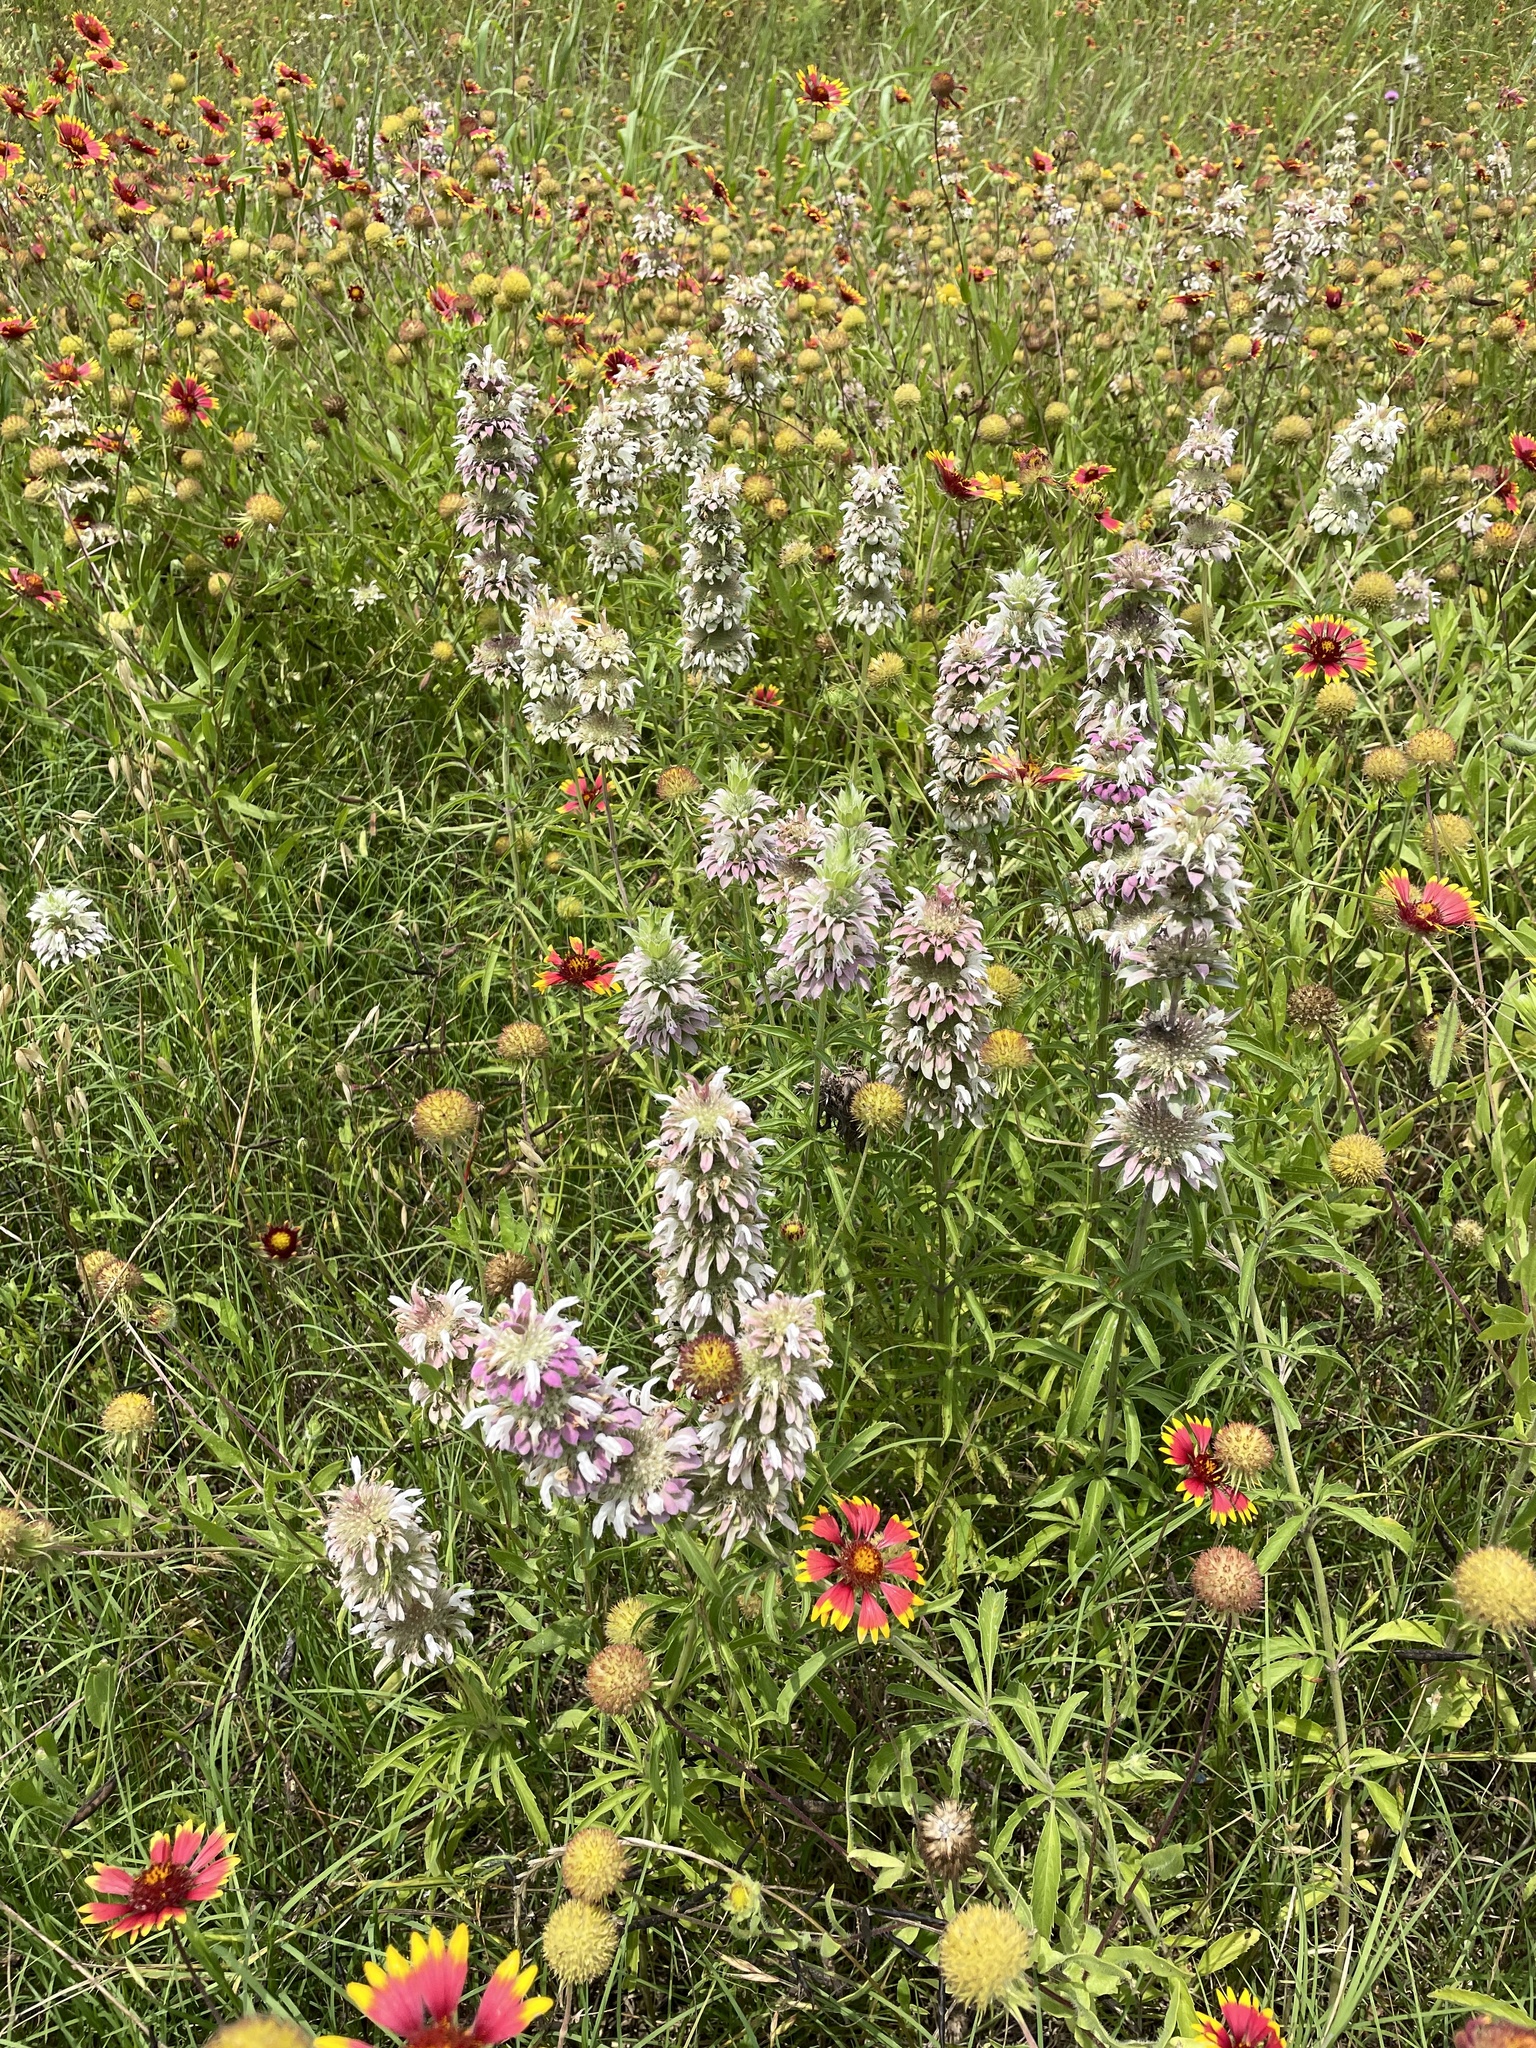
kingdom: Plantae
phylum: Tracheophyta
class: Magnoliopsida
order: Lamiales
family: Lamiaceae
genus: Monarda
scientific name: Monarda citriodora
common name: Lemon beebalm
